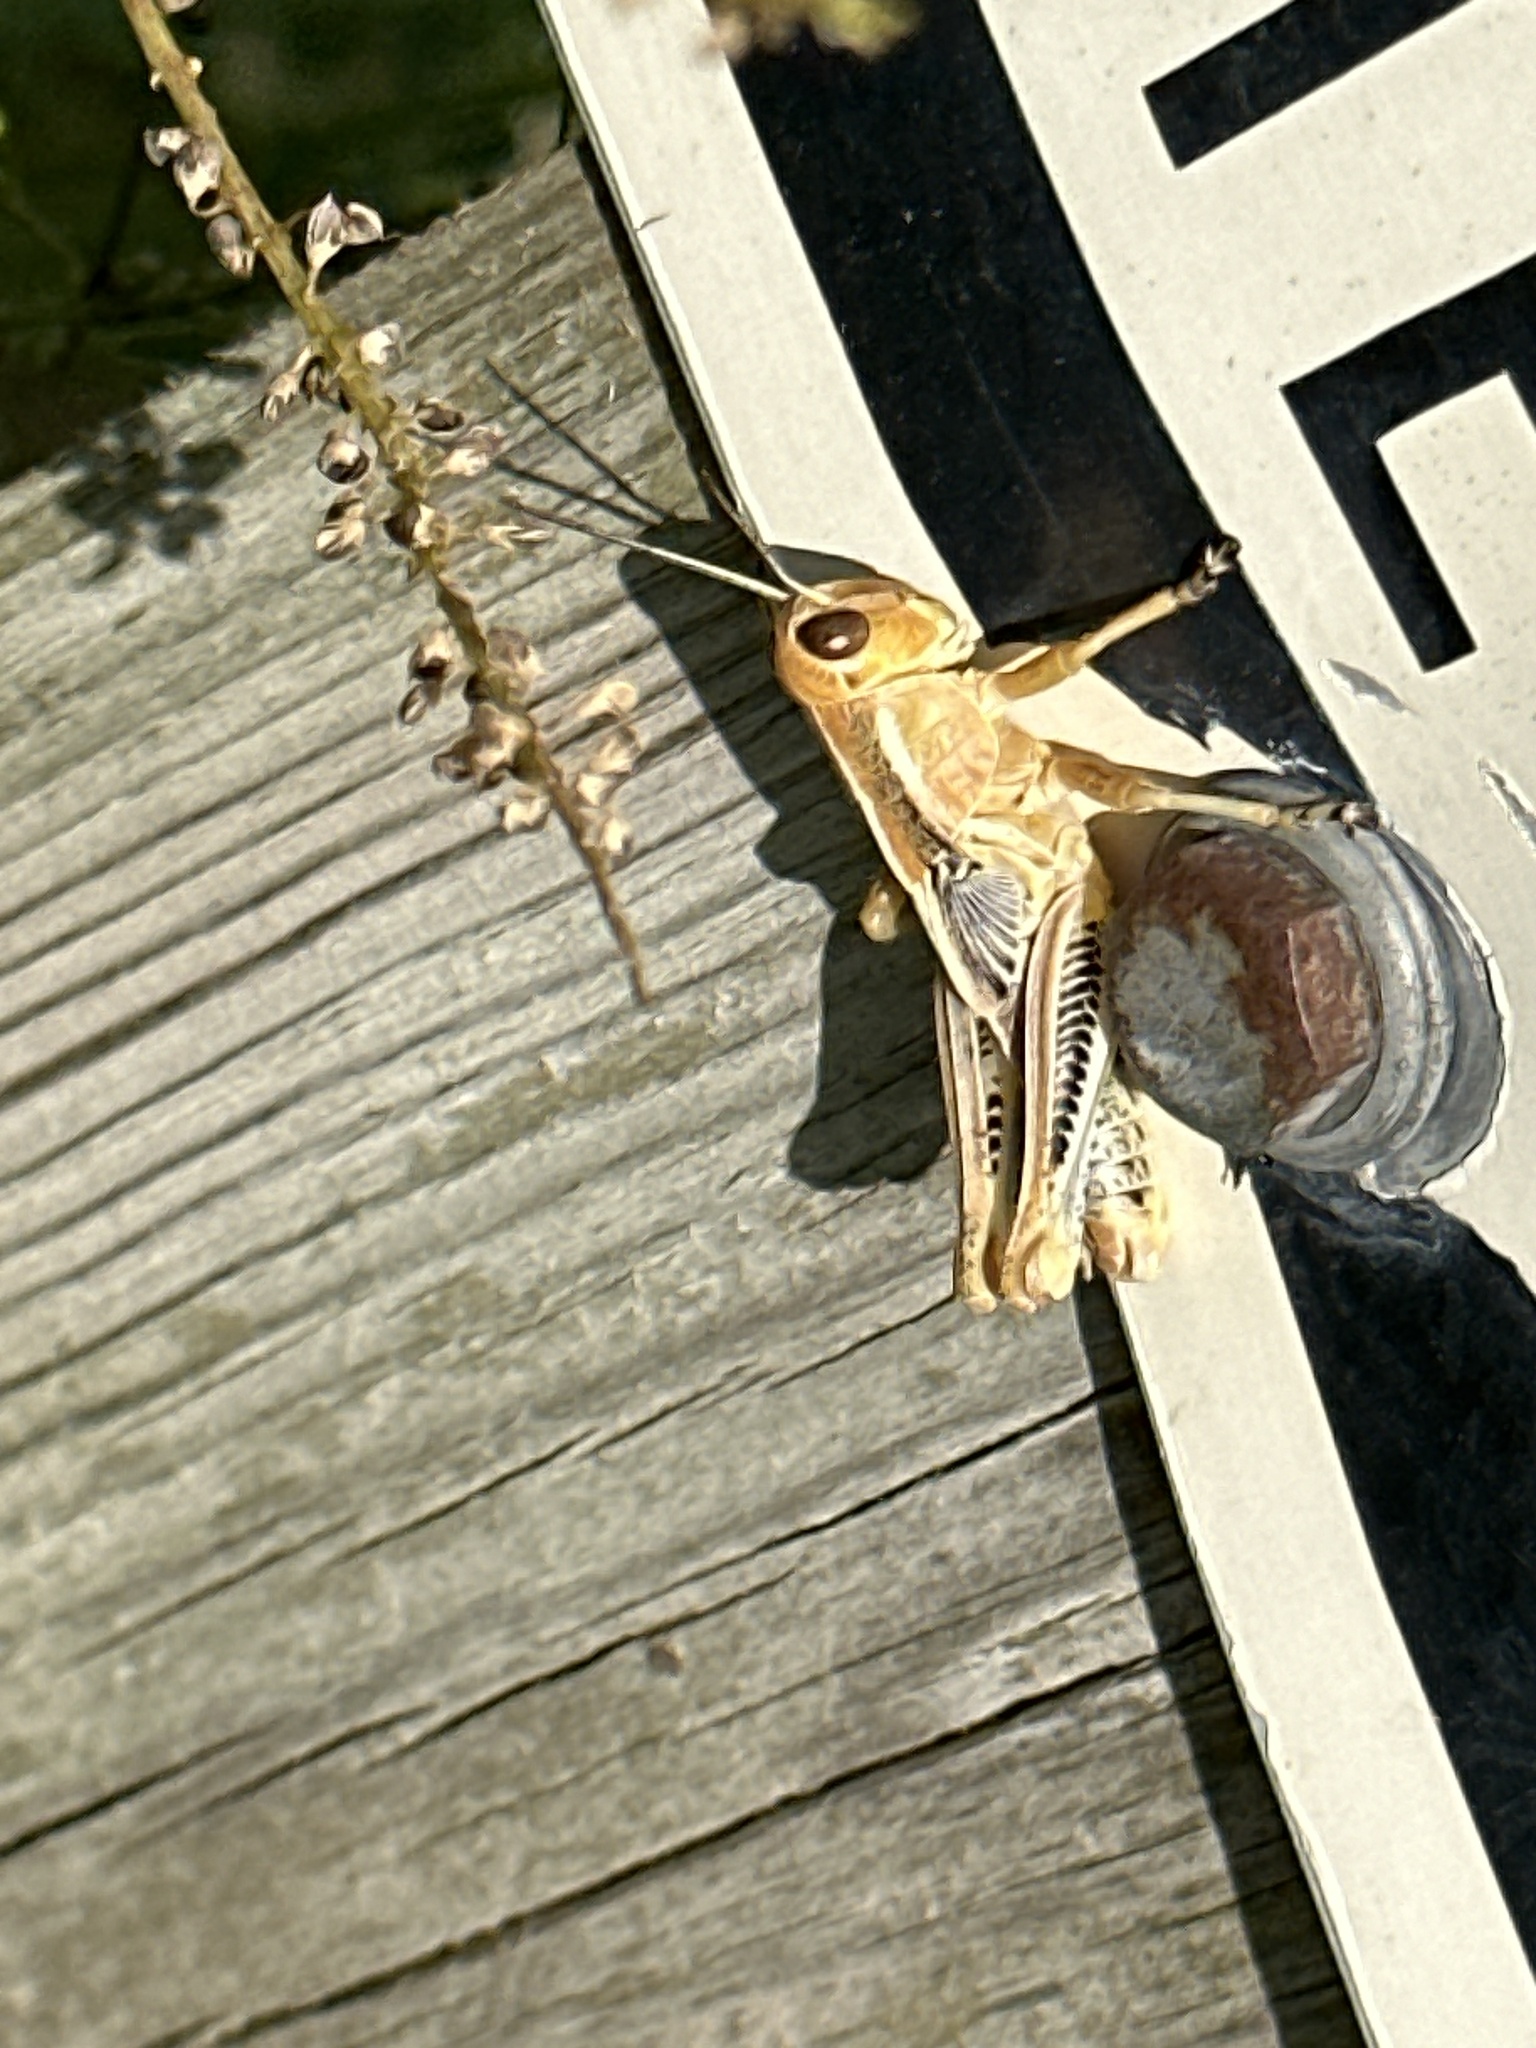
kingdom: Animalia
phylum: Arthropoda
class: Insecta
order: Orthoptera
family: Acrididae
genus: Melanoplus
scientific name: Melanoplus differentialis
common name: Differential grasshopper
